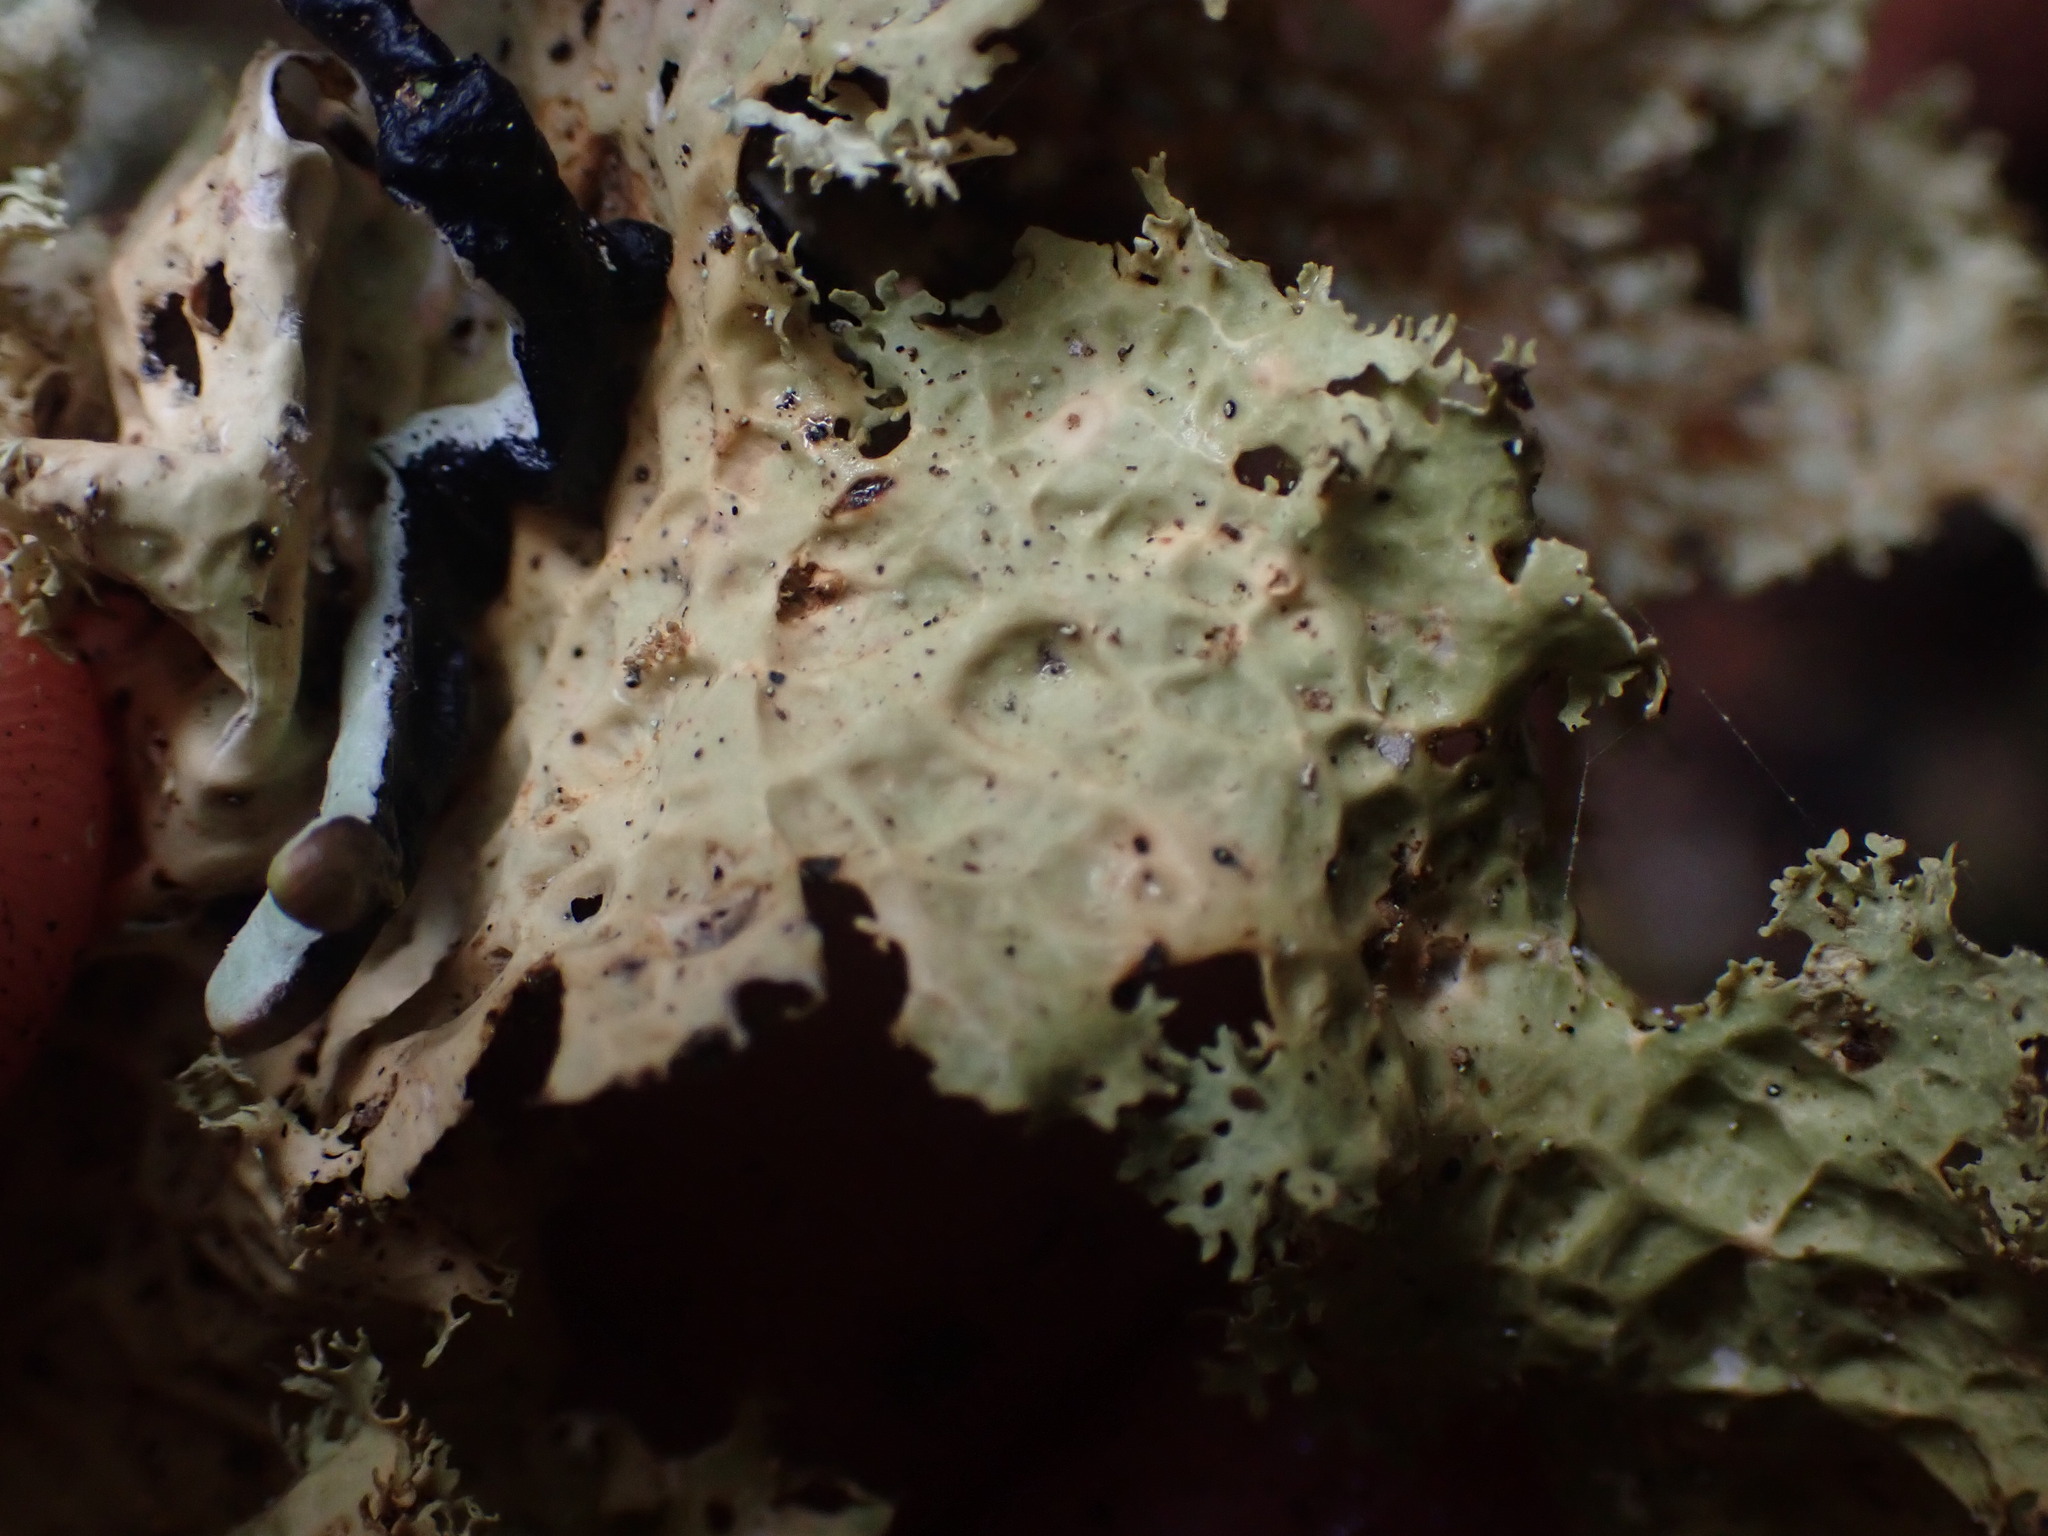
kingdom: Fungi
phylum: Ascomycota
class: Lecanoromycetes
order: Peltigerales
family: Lobariaceae
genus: Lobaria
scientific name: Lobaria oregana
